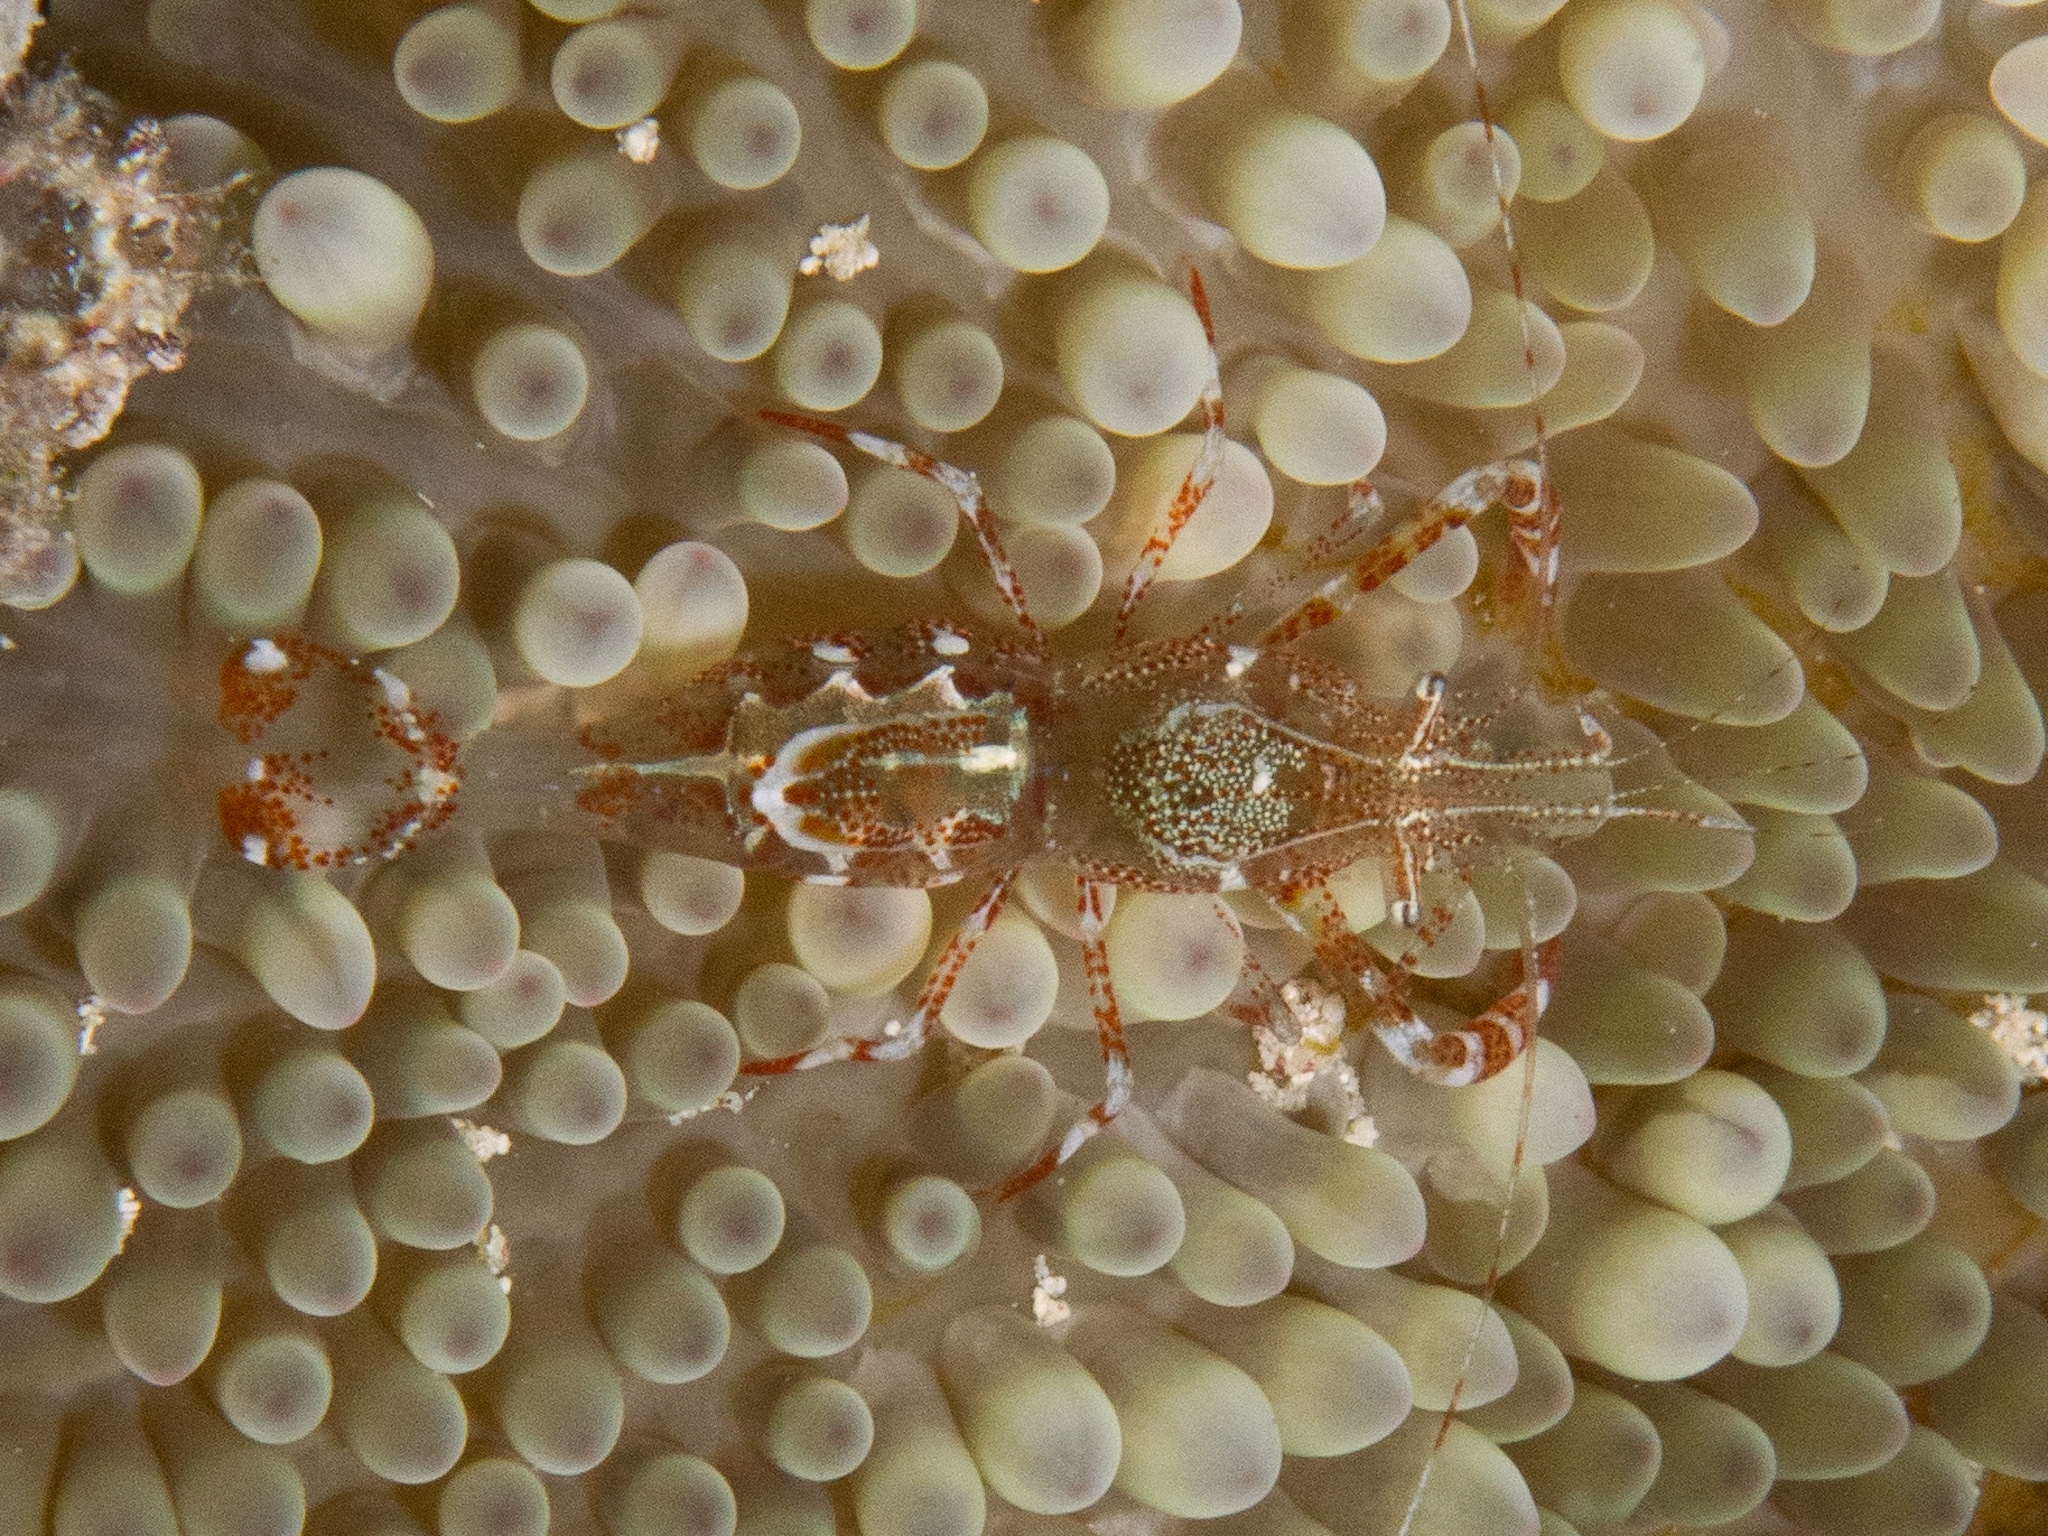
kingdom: Animalia
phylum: Arthropoda
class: Malacostraca
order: Decapoda
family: Palaemonidae
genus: Periclimenes
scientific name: Periclimenes rathbunae
